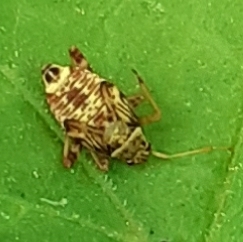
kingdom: Animalia
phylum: Arthropoda
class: Insecta
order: Hemiptera
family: Miridae
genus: Rhabdomiris
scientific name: Rhabdomiris striatellus
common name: Plant bug
